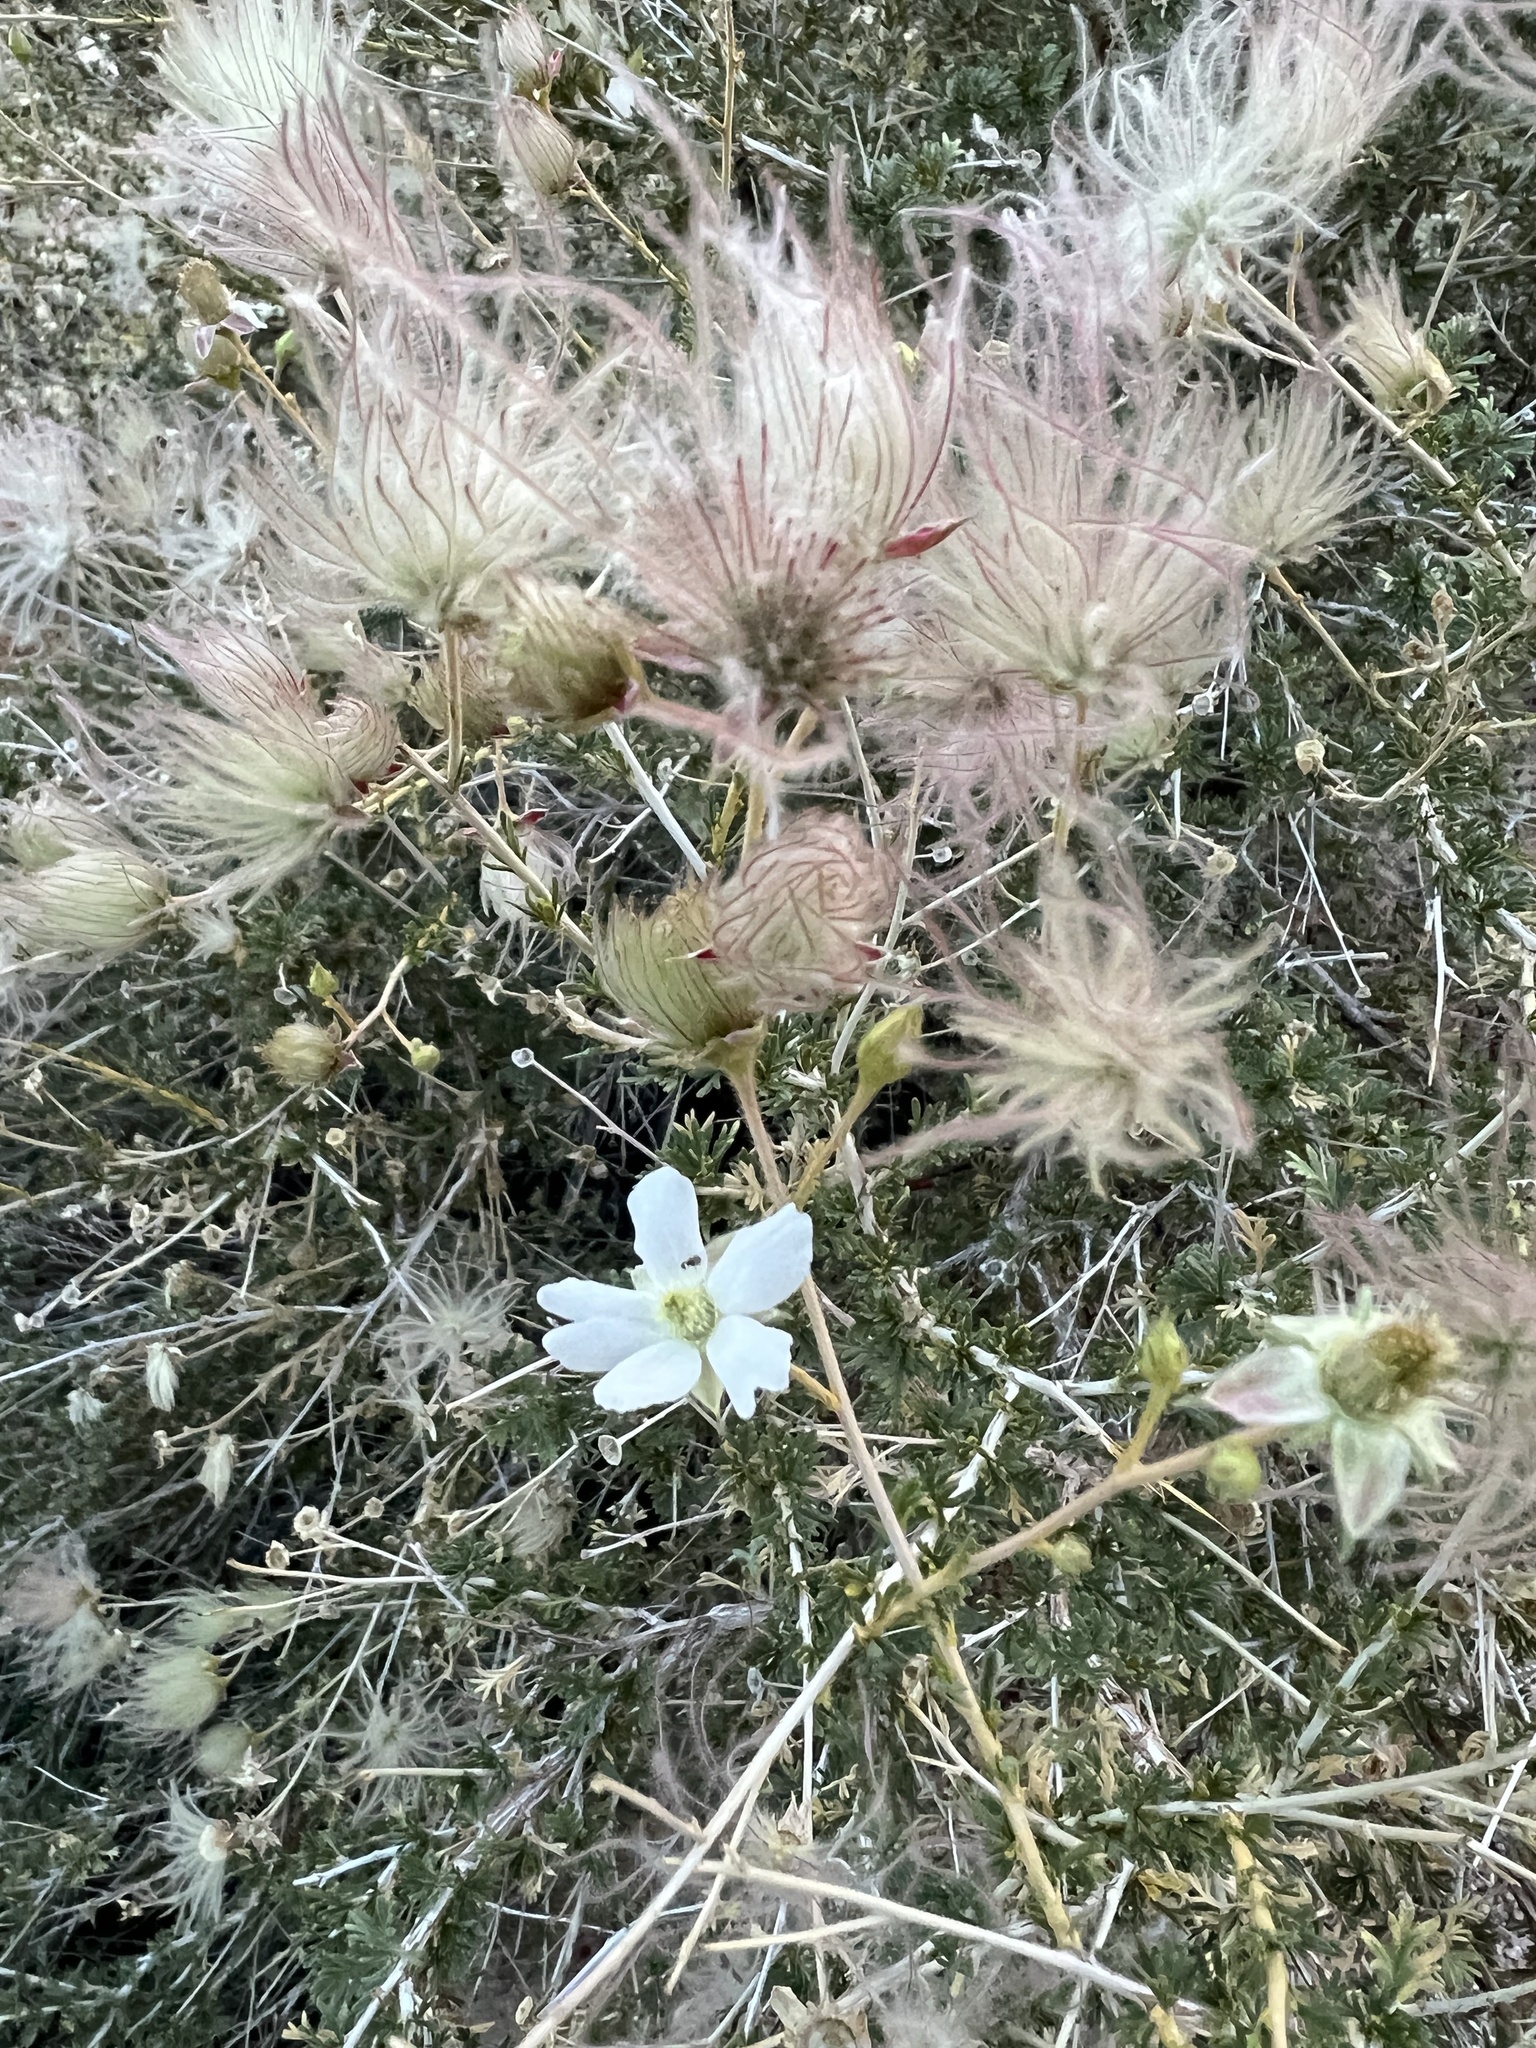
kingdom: Plantae
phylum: Tracheophyta
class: Magnoliopsida
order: Rosales
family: Rosaceae
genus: Fallugia
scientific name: Fallugia paradoxa
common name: Apache-plume
